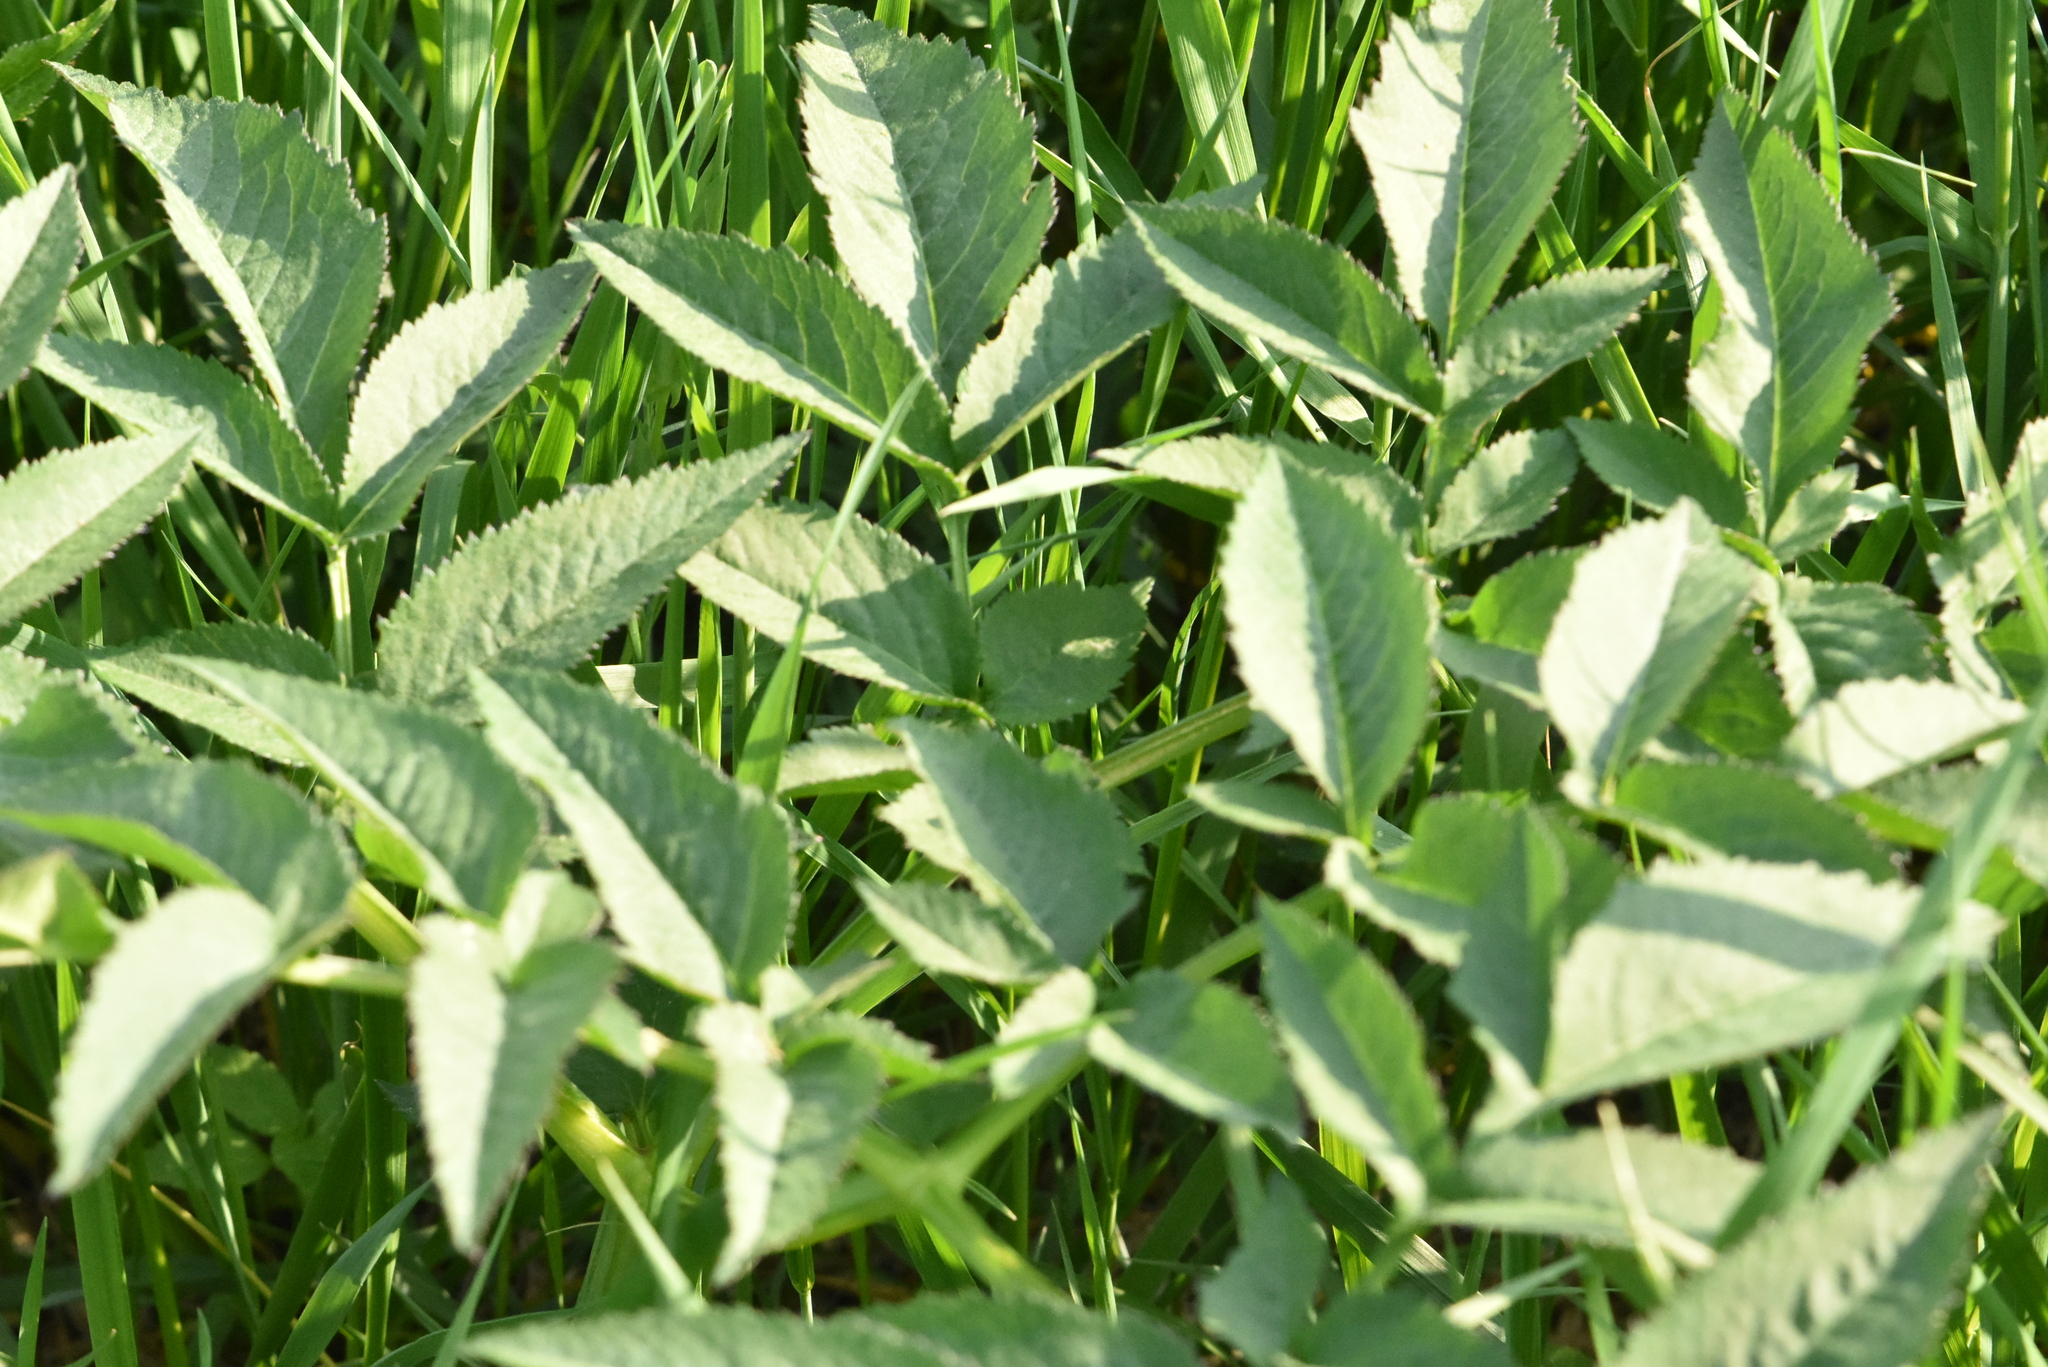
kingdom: Plantae
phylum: Tracheophyta
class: Magnoliopsida
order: Apiales
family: Apiaceae
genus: Angelica
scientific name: Angelica sylvestris
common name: Wild angelica
